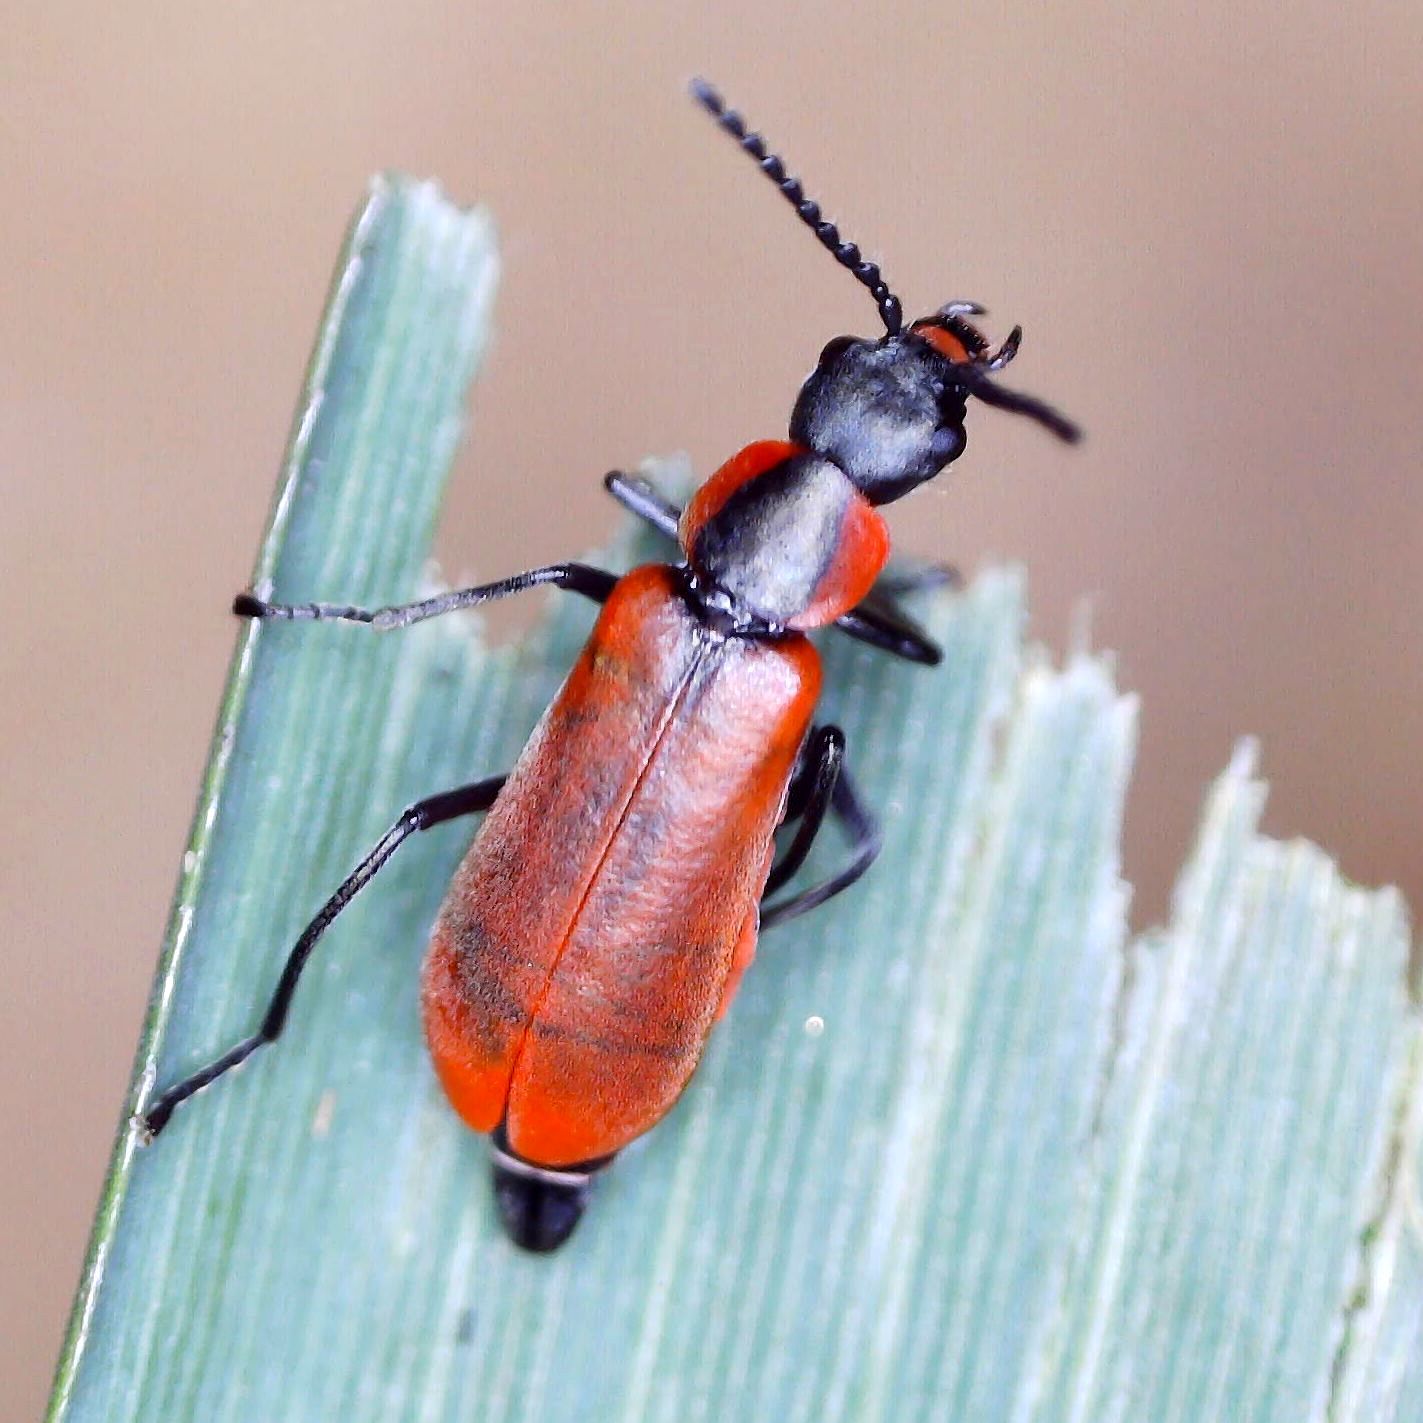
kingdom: Animalia
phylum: Arthropoda
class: Insecta
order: Coleoptera
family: Melyridae
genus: Anthocomus
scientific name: Anthocomus rufus
